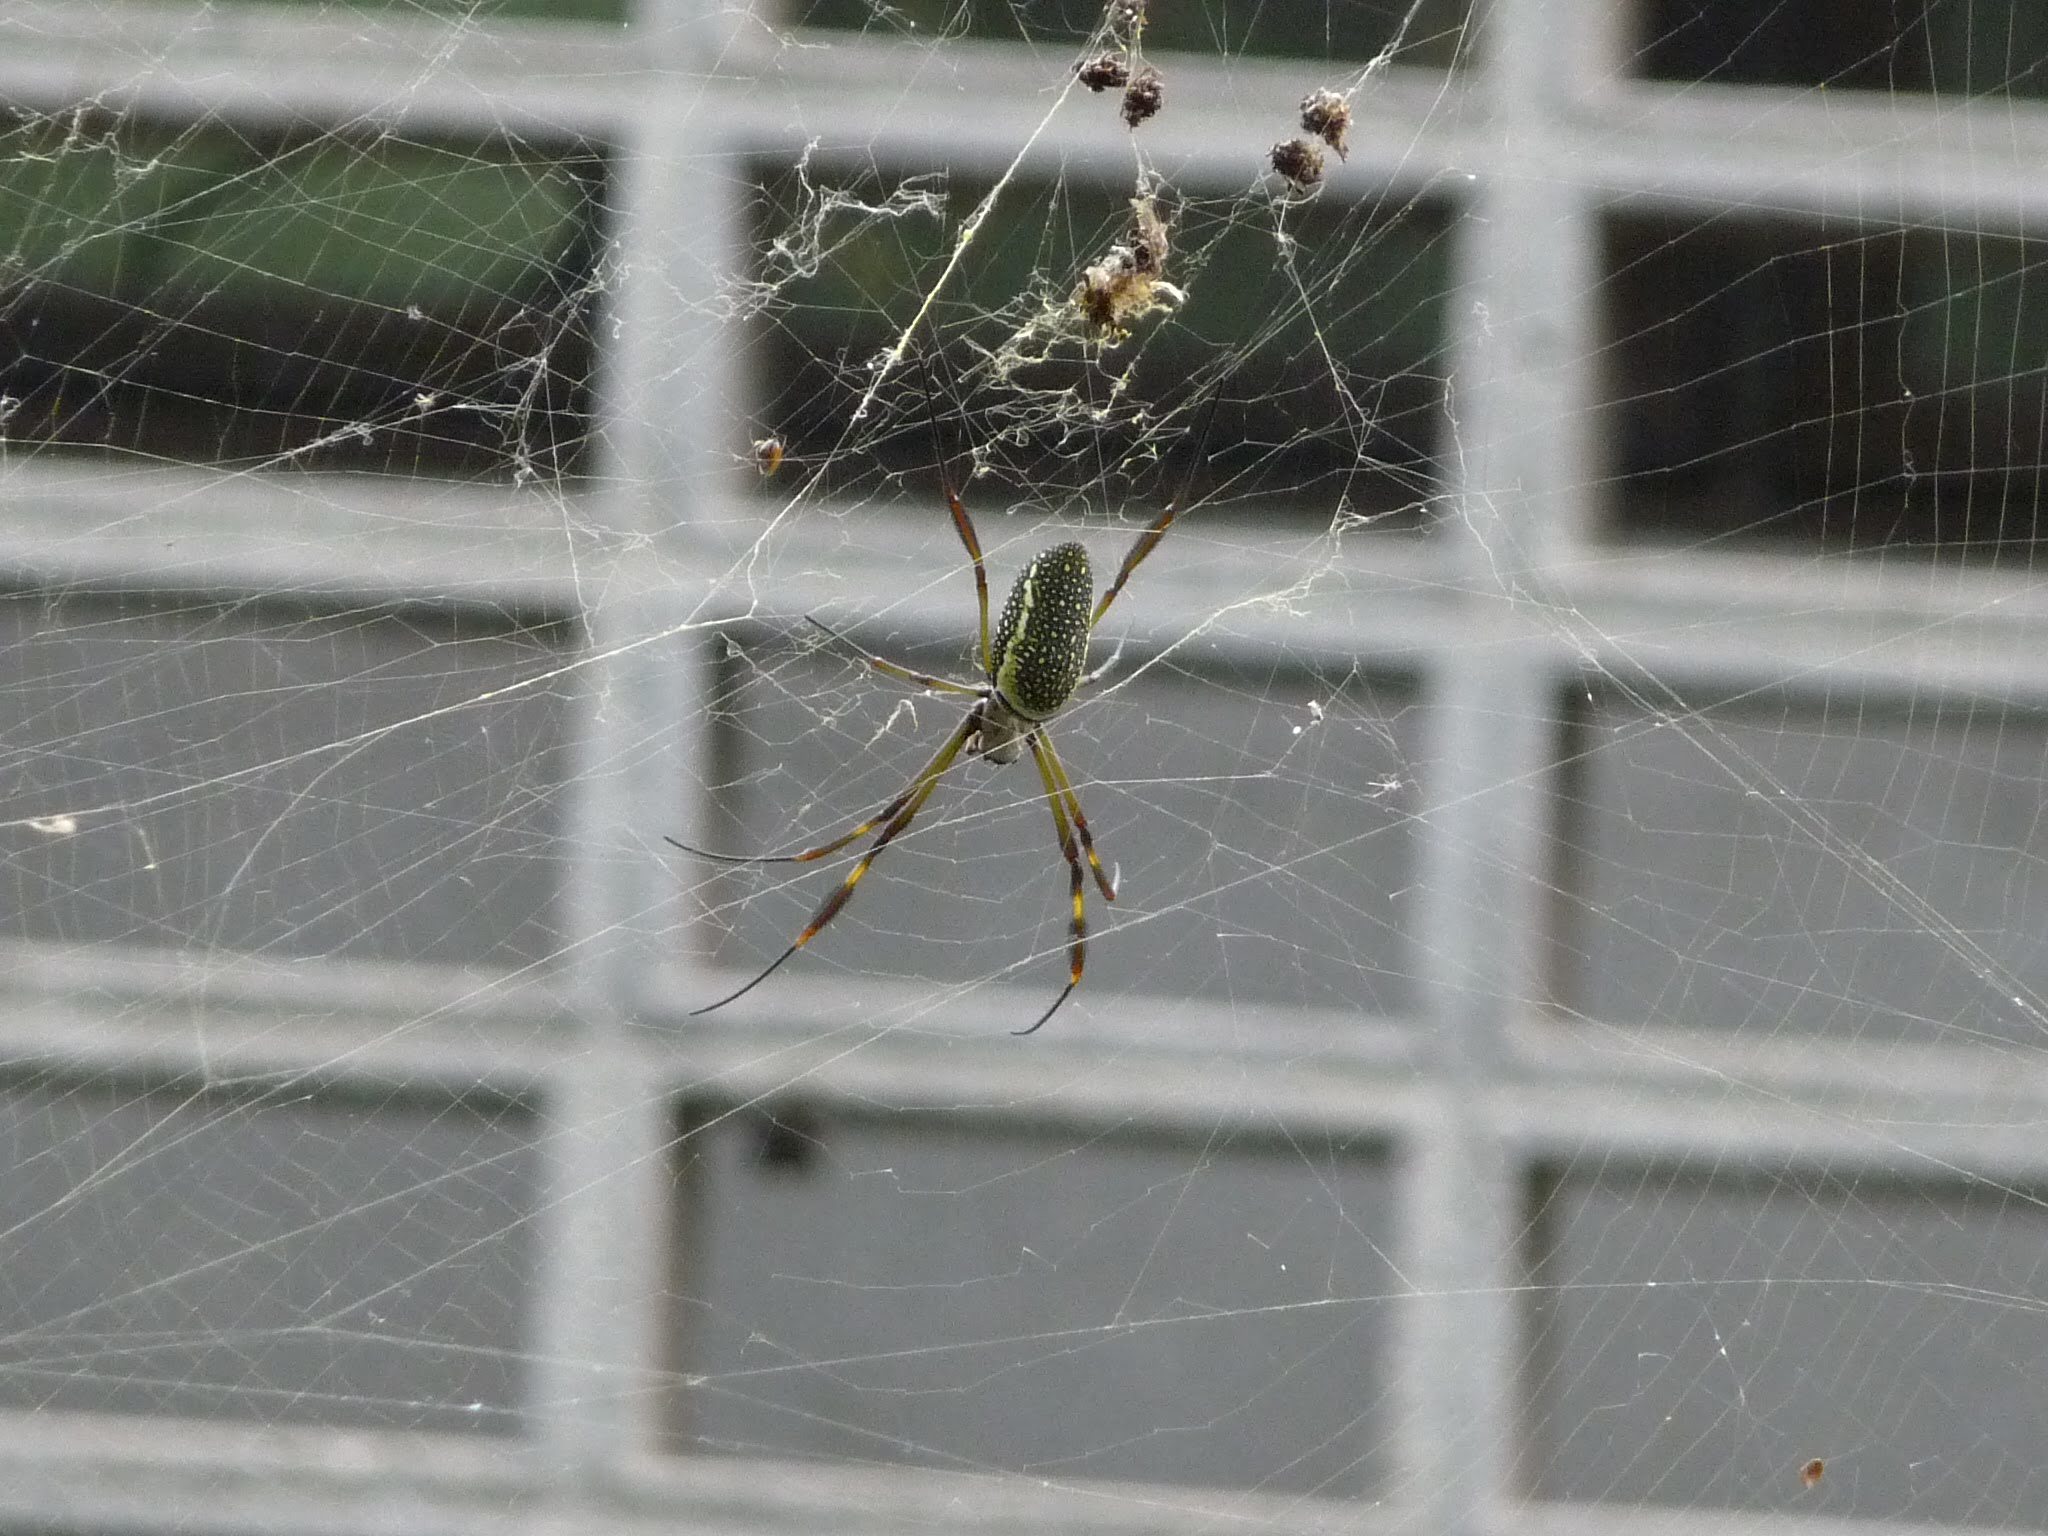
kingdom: Animalia
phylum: Arthropoda
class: Arachnida
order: Araneae
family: Araneidae
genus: Trichonephila
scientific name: Trichonephila clavipes
